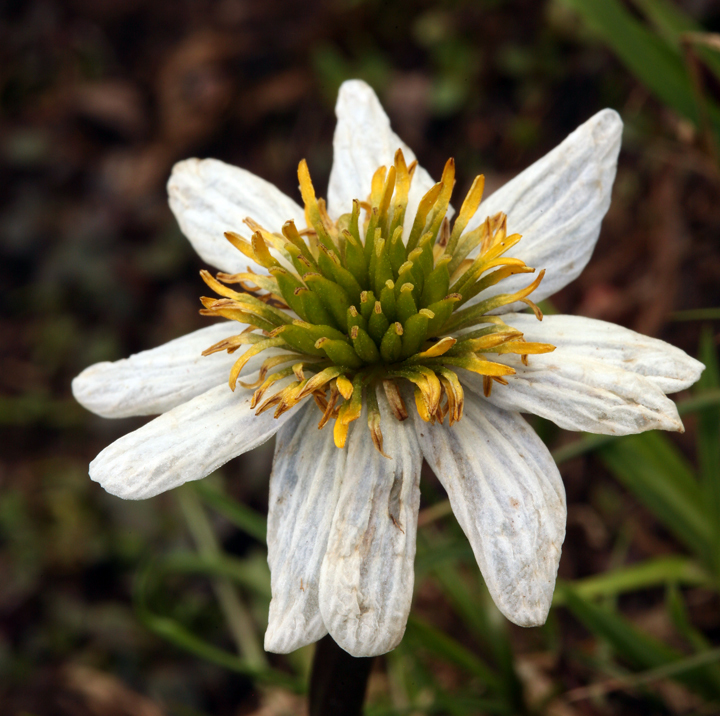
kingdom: Plantae
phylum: Tracheophyta
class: Magnoliopsida
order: Ranunculales
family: Ranunculaceae
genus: Caltha
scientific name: Caltha leptosepala
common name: Elkslip
